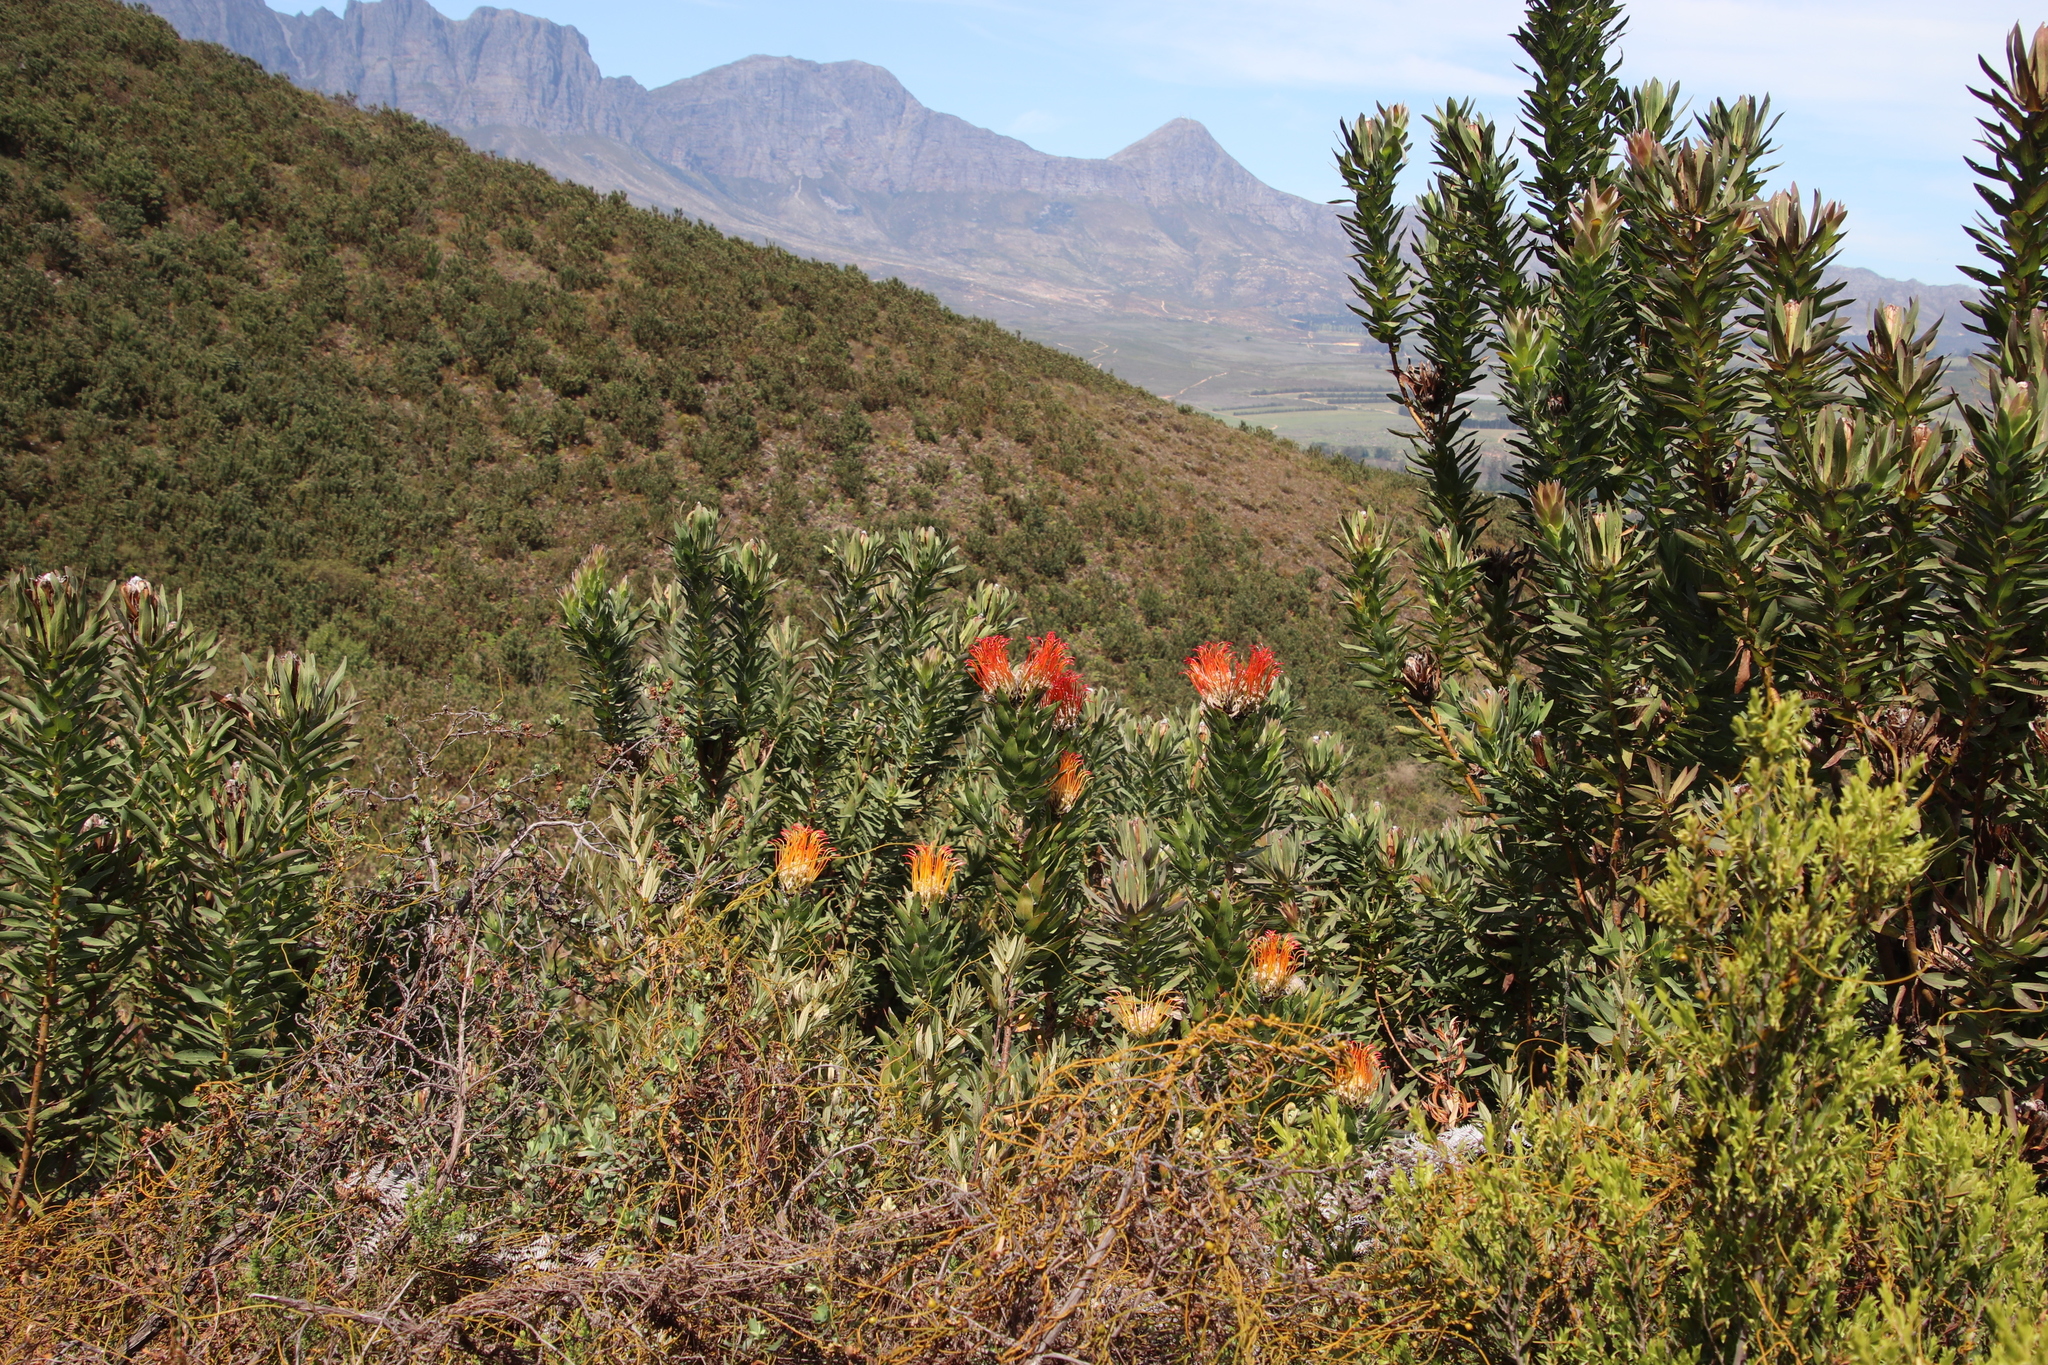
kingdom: Plantae
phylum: Tracheophyta
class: Magnoliopsida
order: Proteales
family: Proteaceae
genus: Leucospermum
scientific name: Leucospermum gueinzii
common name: Kloof fountain pincushion
